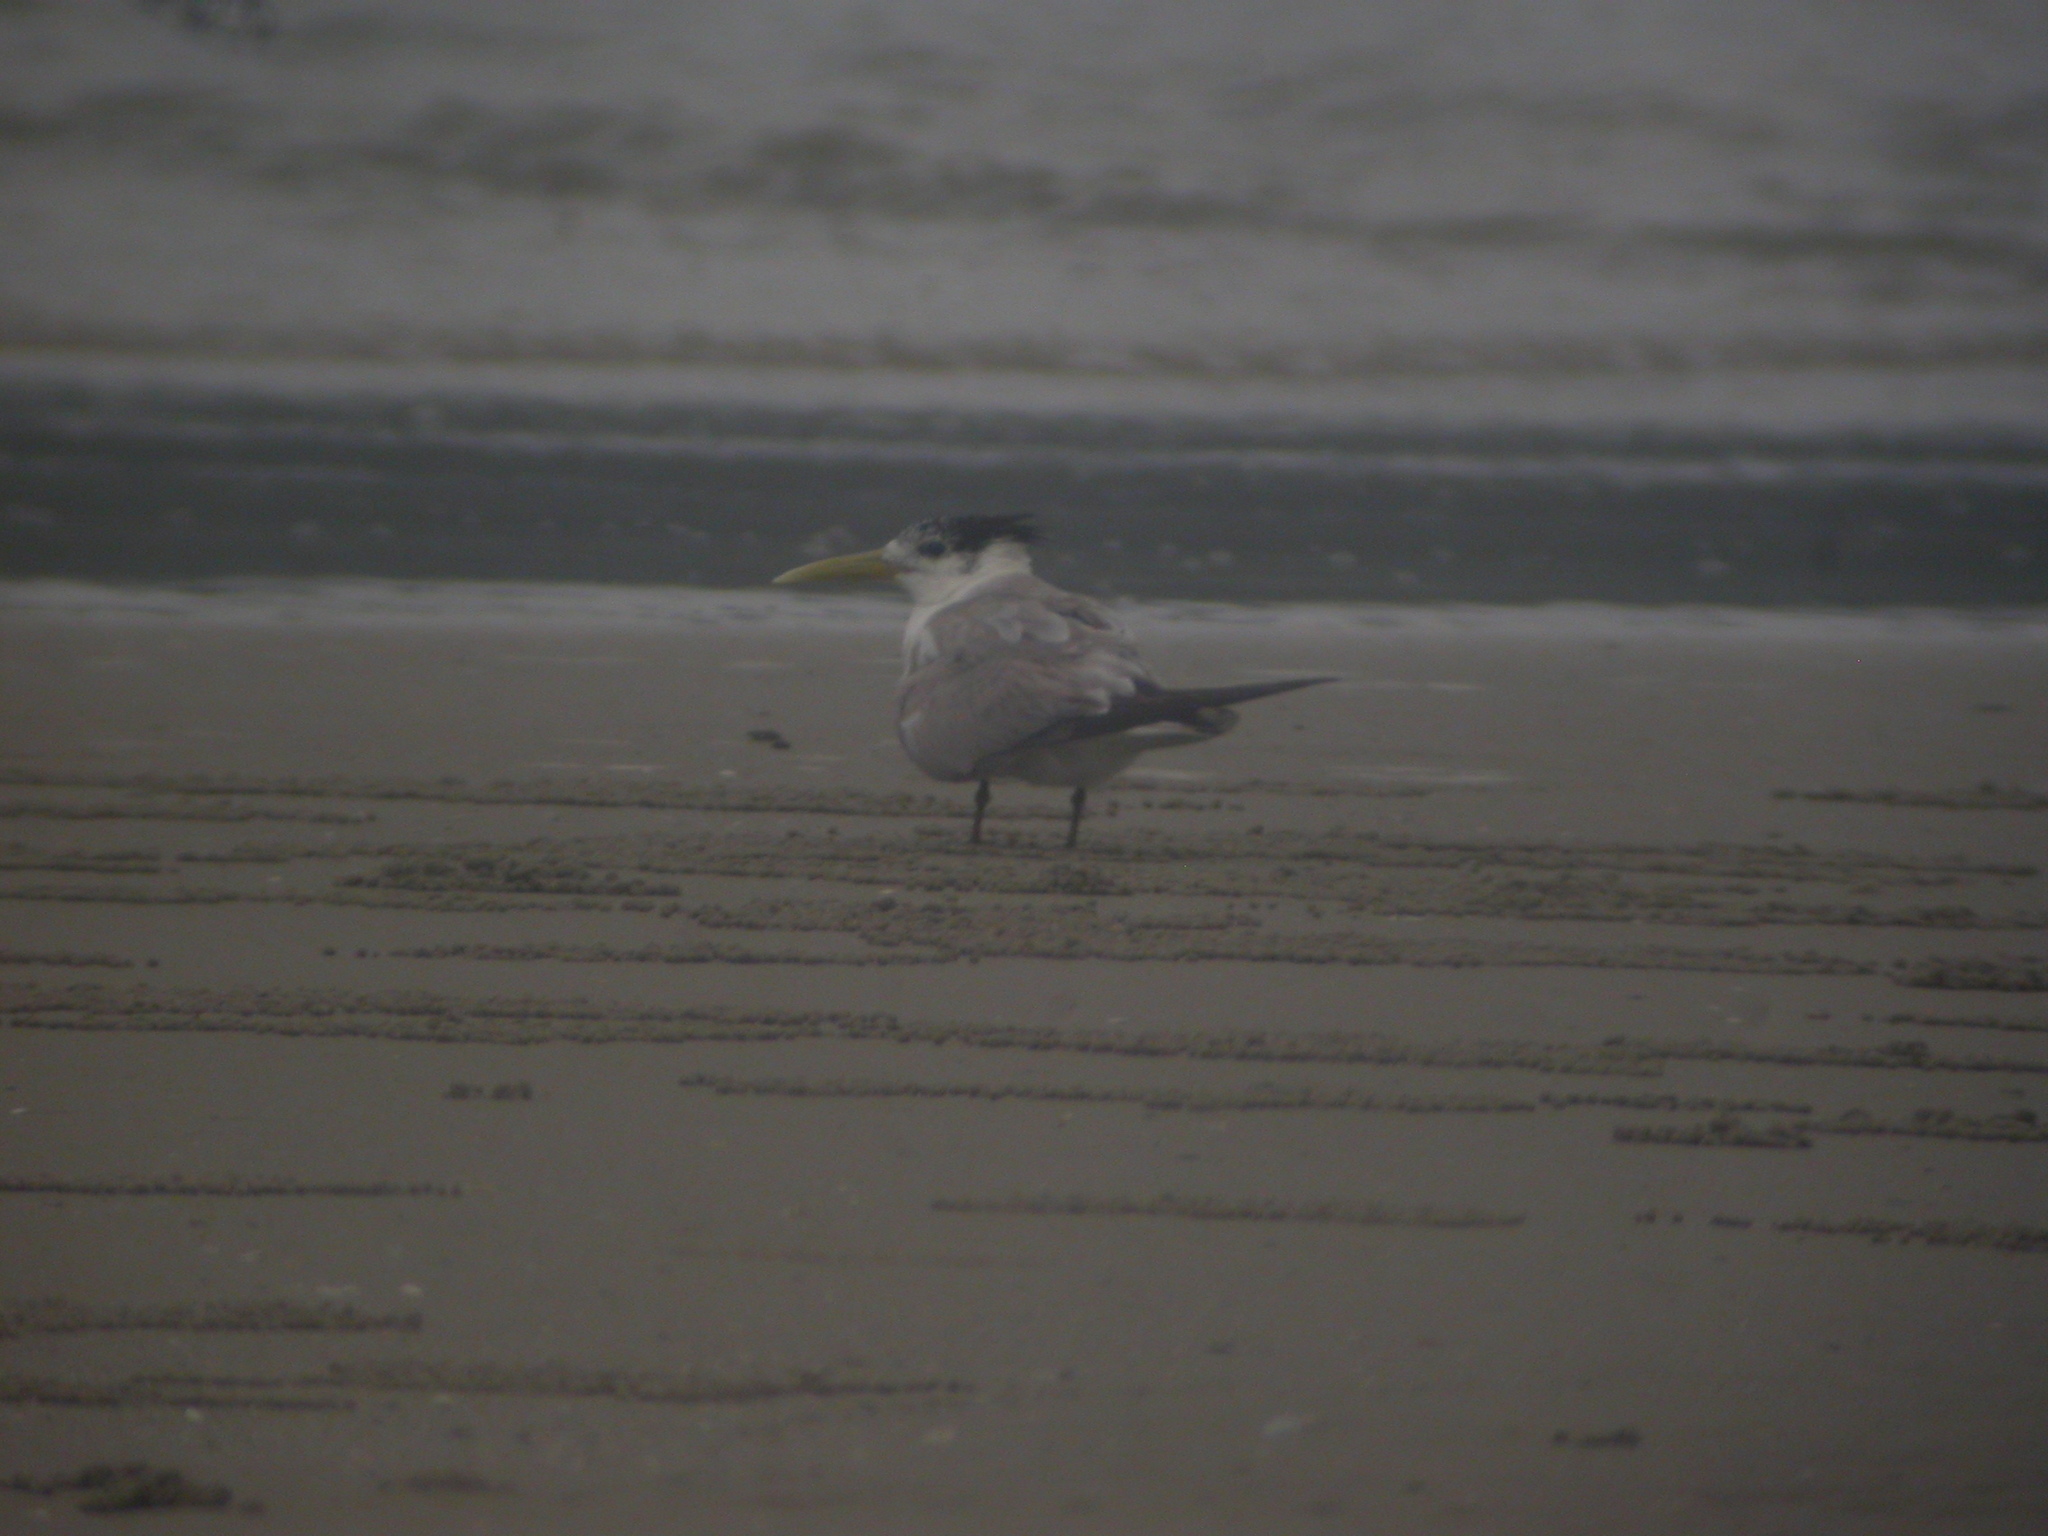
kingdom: Animalia
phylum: Chordata
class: Aves
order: Charadriiformes
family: Laridae
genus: Thalasseus
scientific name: Thalasseus bergii
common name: Greater crested tern
